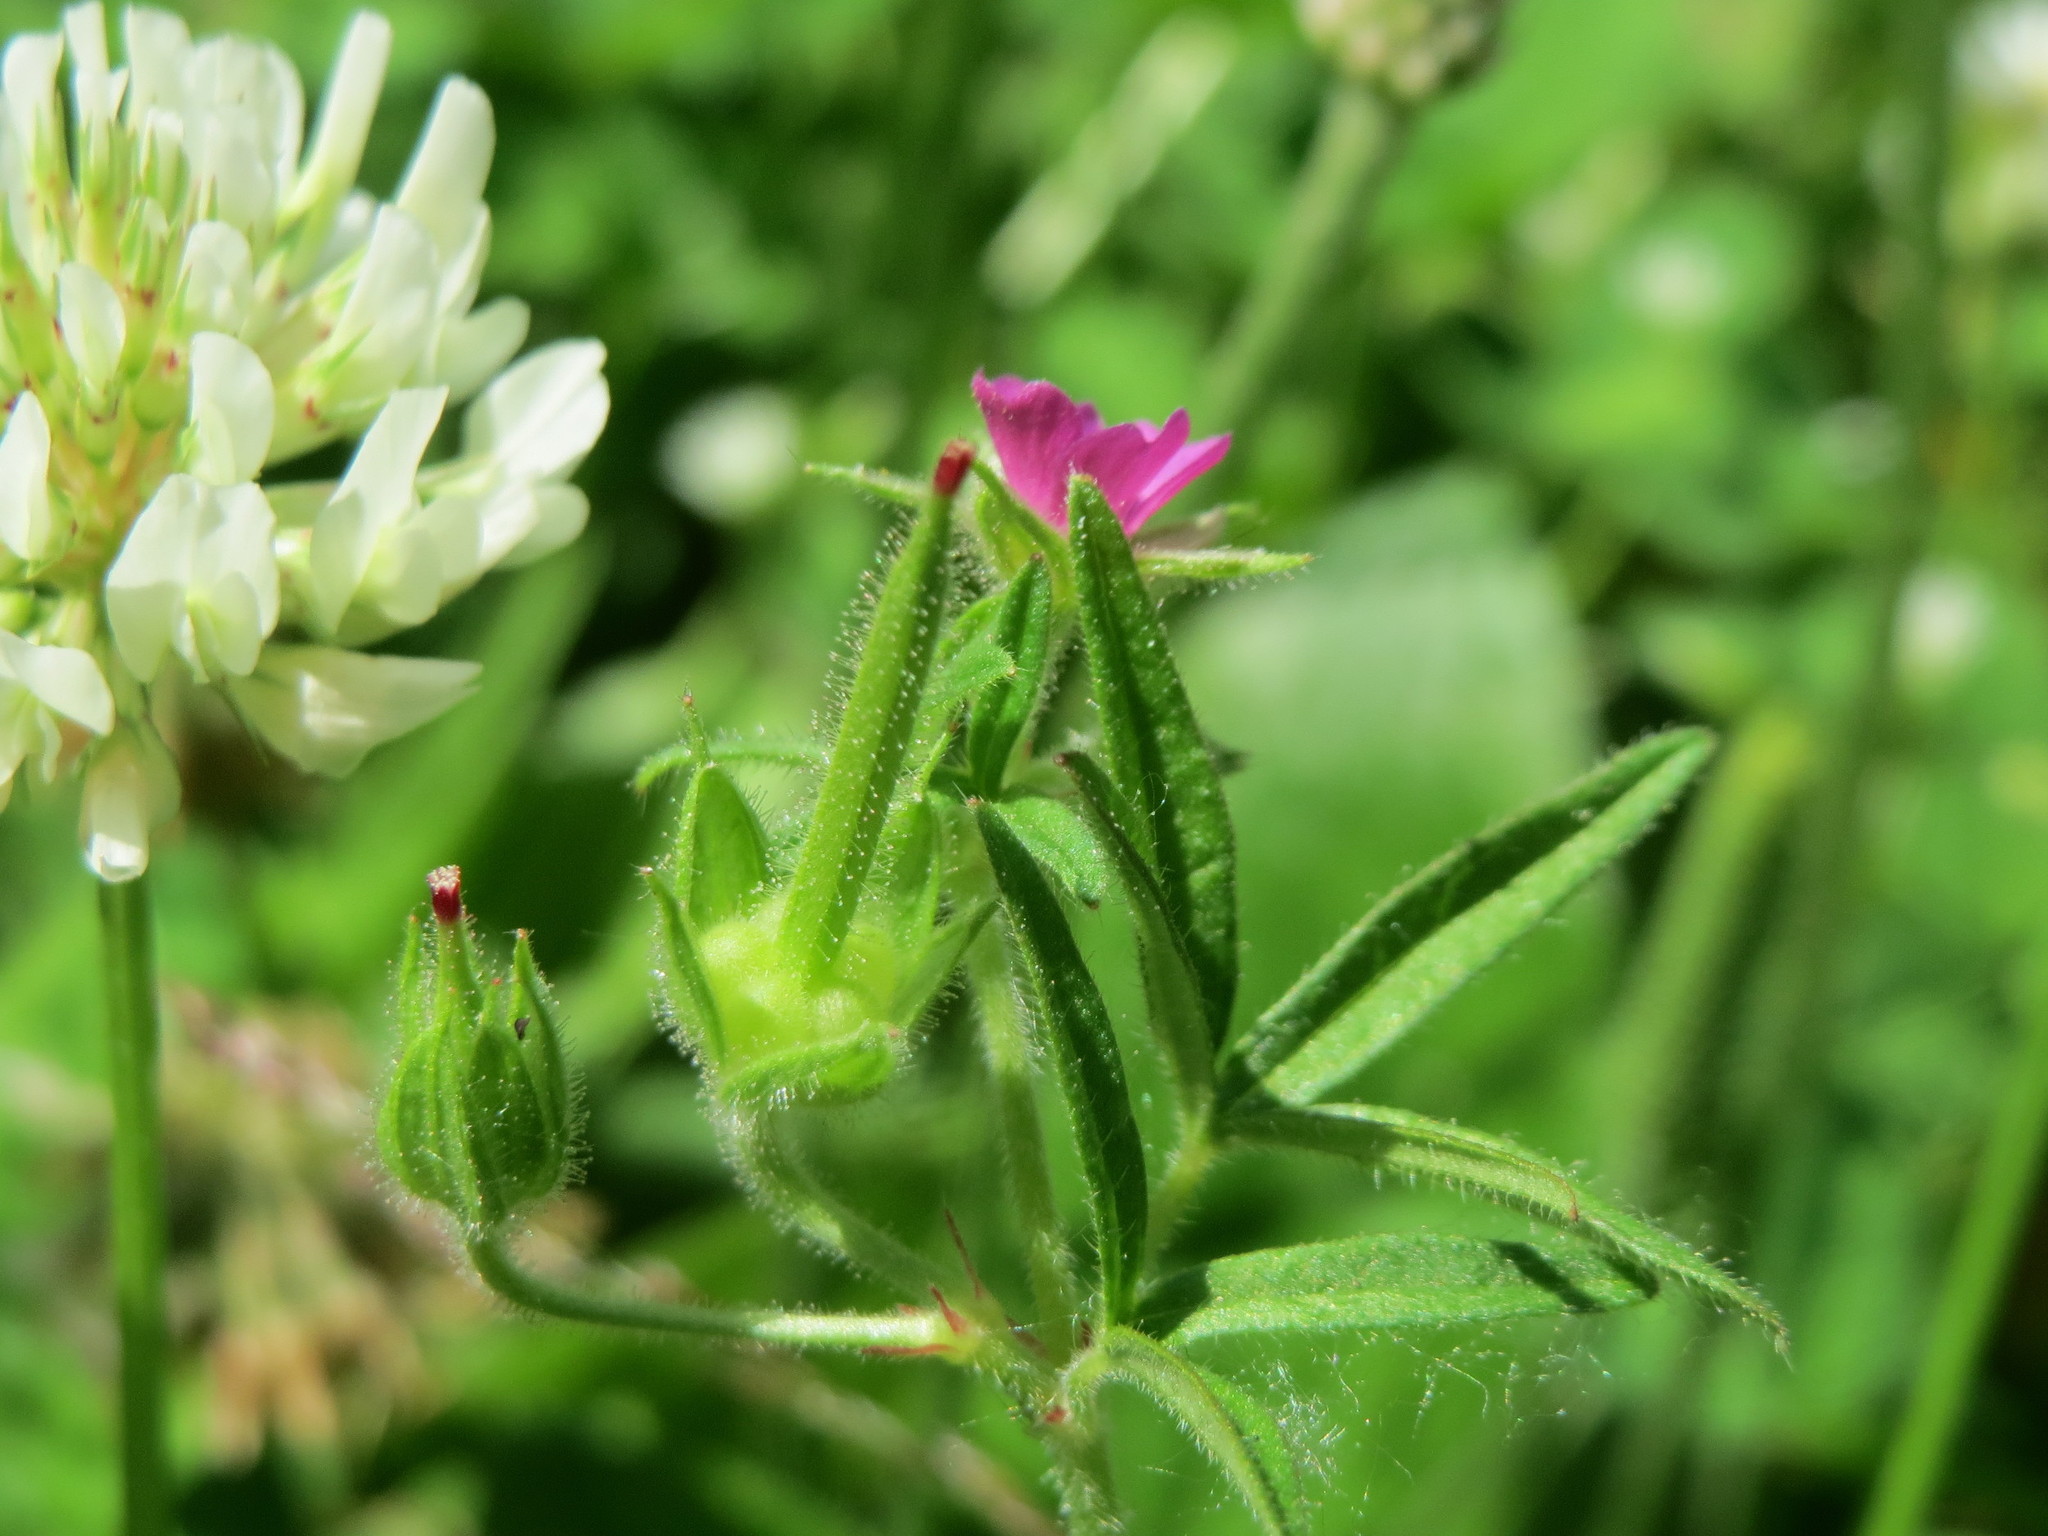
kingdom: Plantae
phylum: Tracheophyta
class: Magnoliopsida
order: Geraniales
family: Geraniaceae
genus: Geranium
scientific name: Geranium dissectum
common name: Cut-leaved crane's-bill
